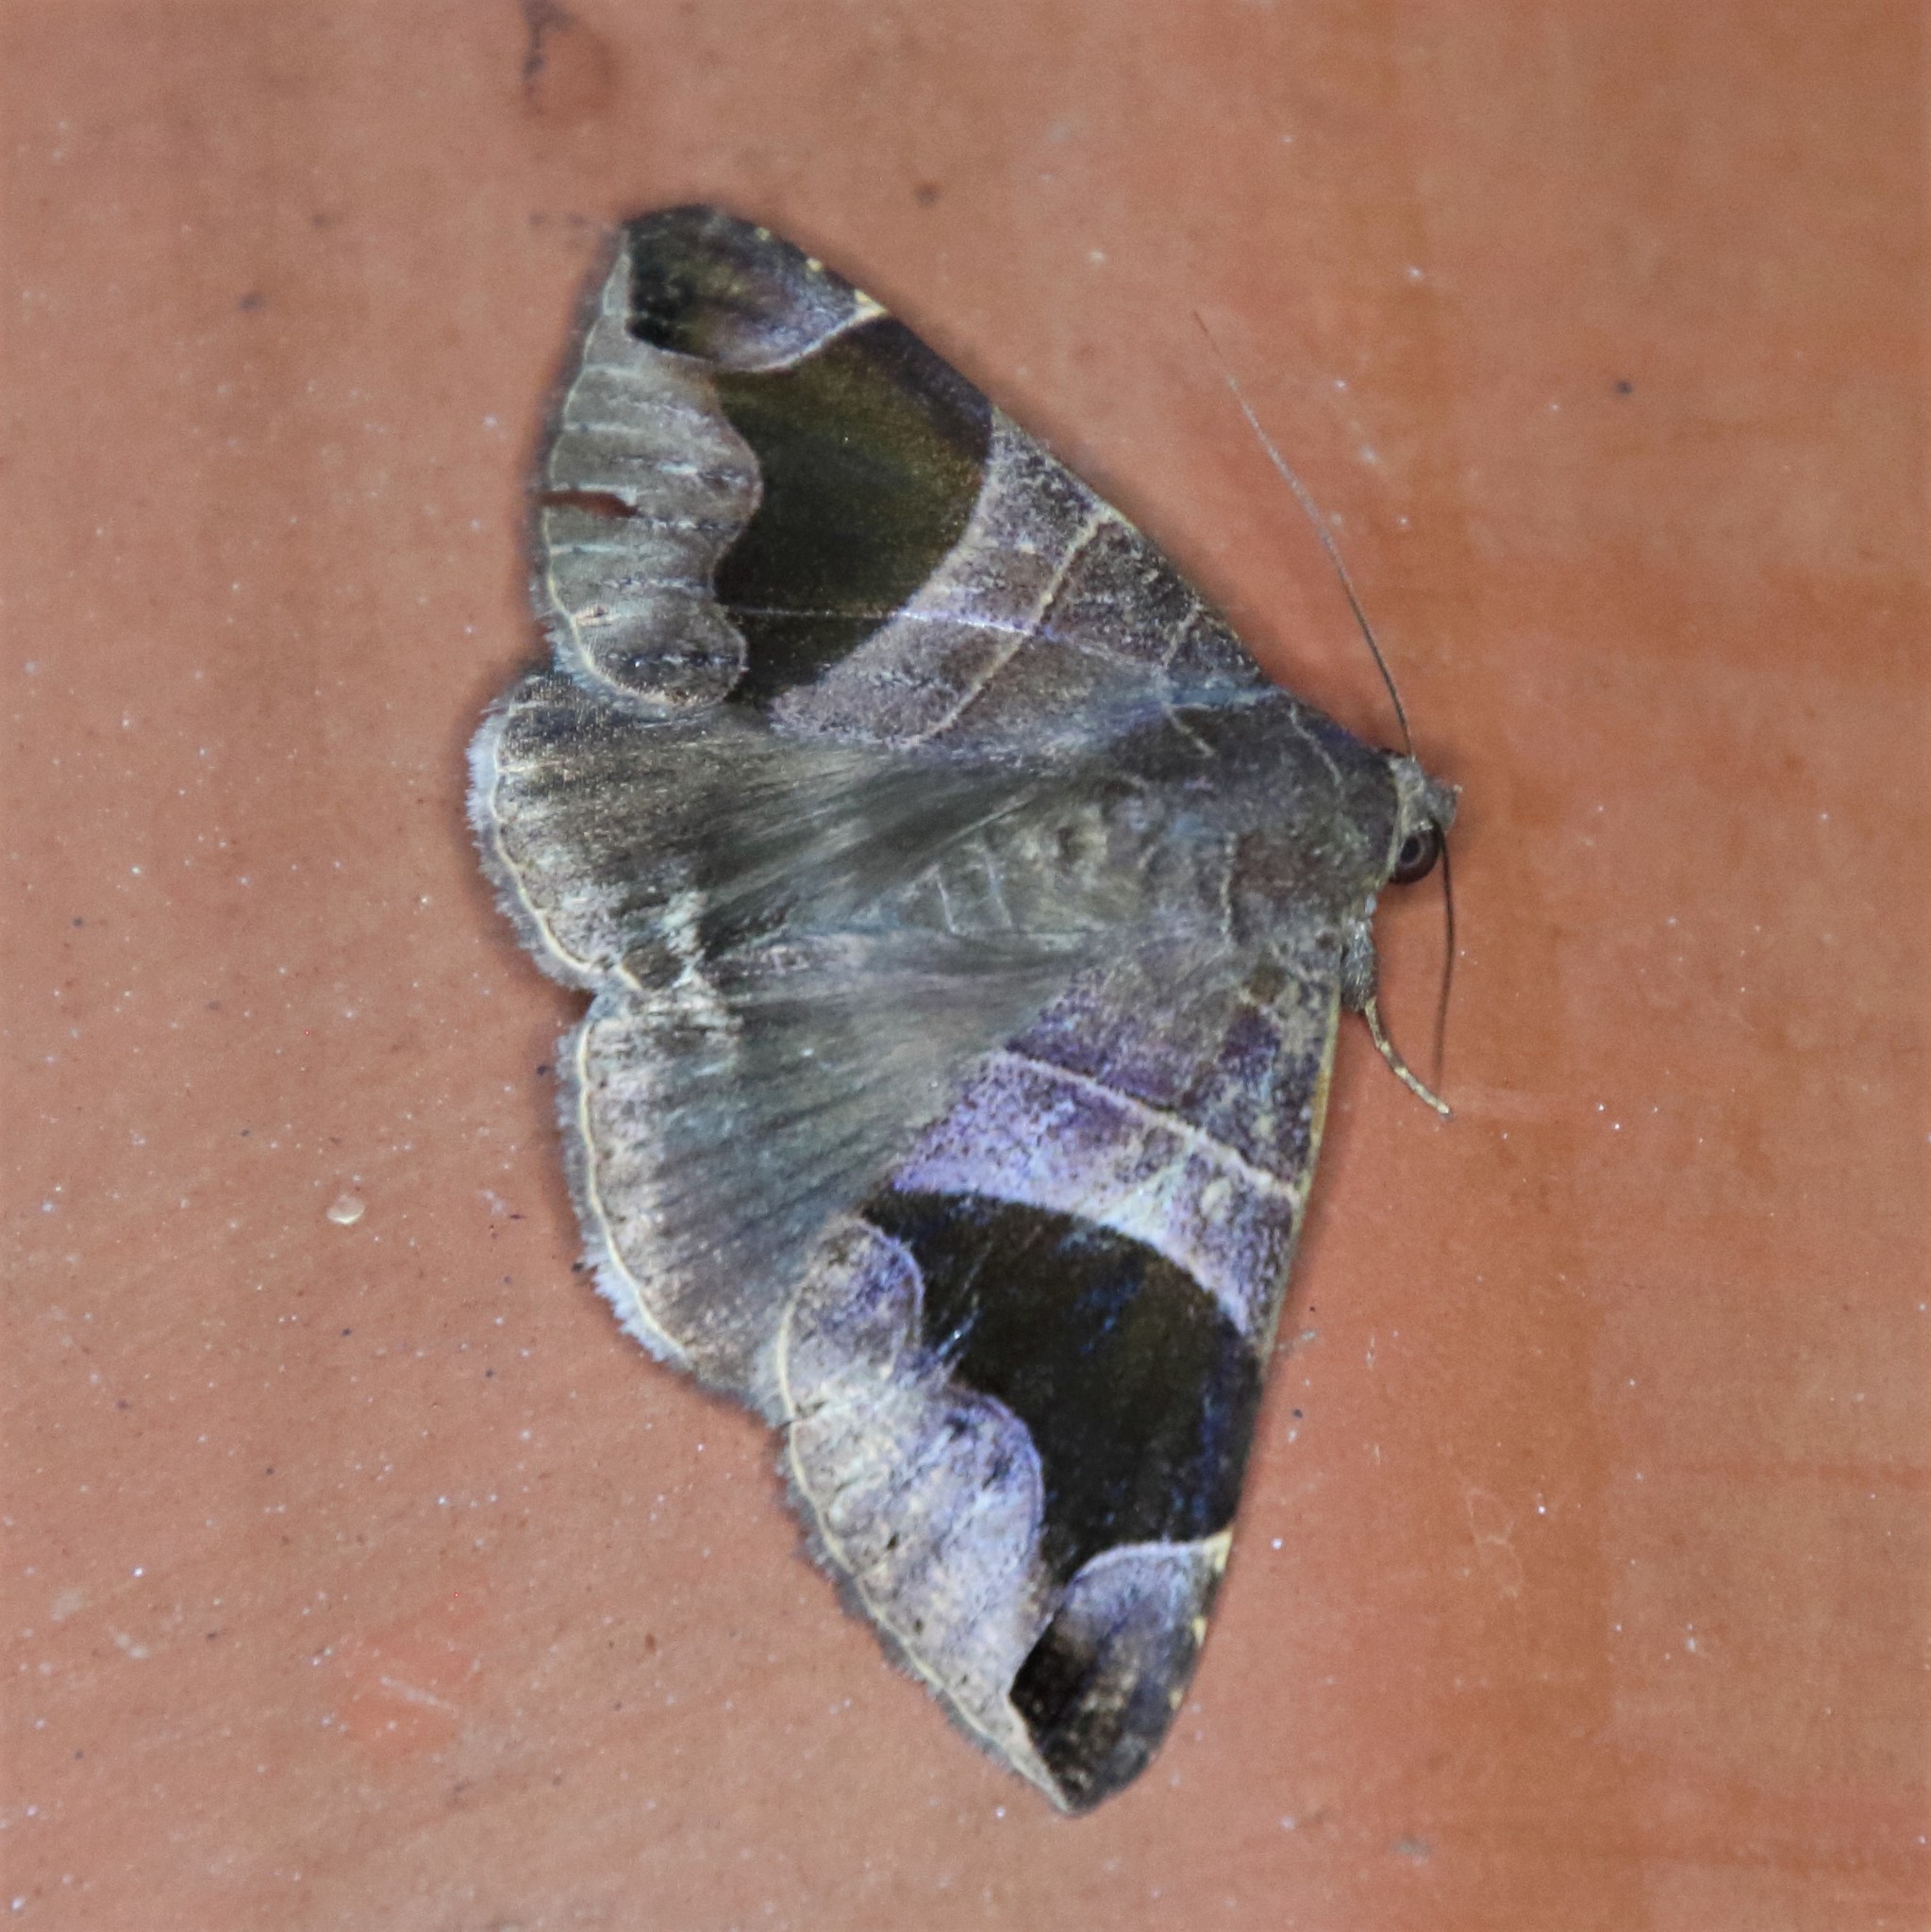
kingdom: Animalia
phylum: Arthropoda
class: Insecta
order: Lepidoptera
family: Erebidae
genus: Bastilla
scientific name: Bastilla joviana
